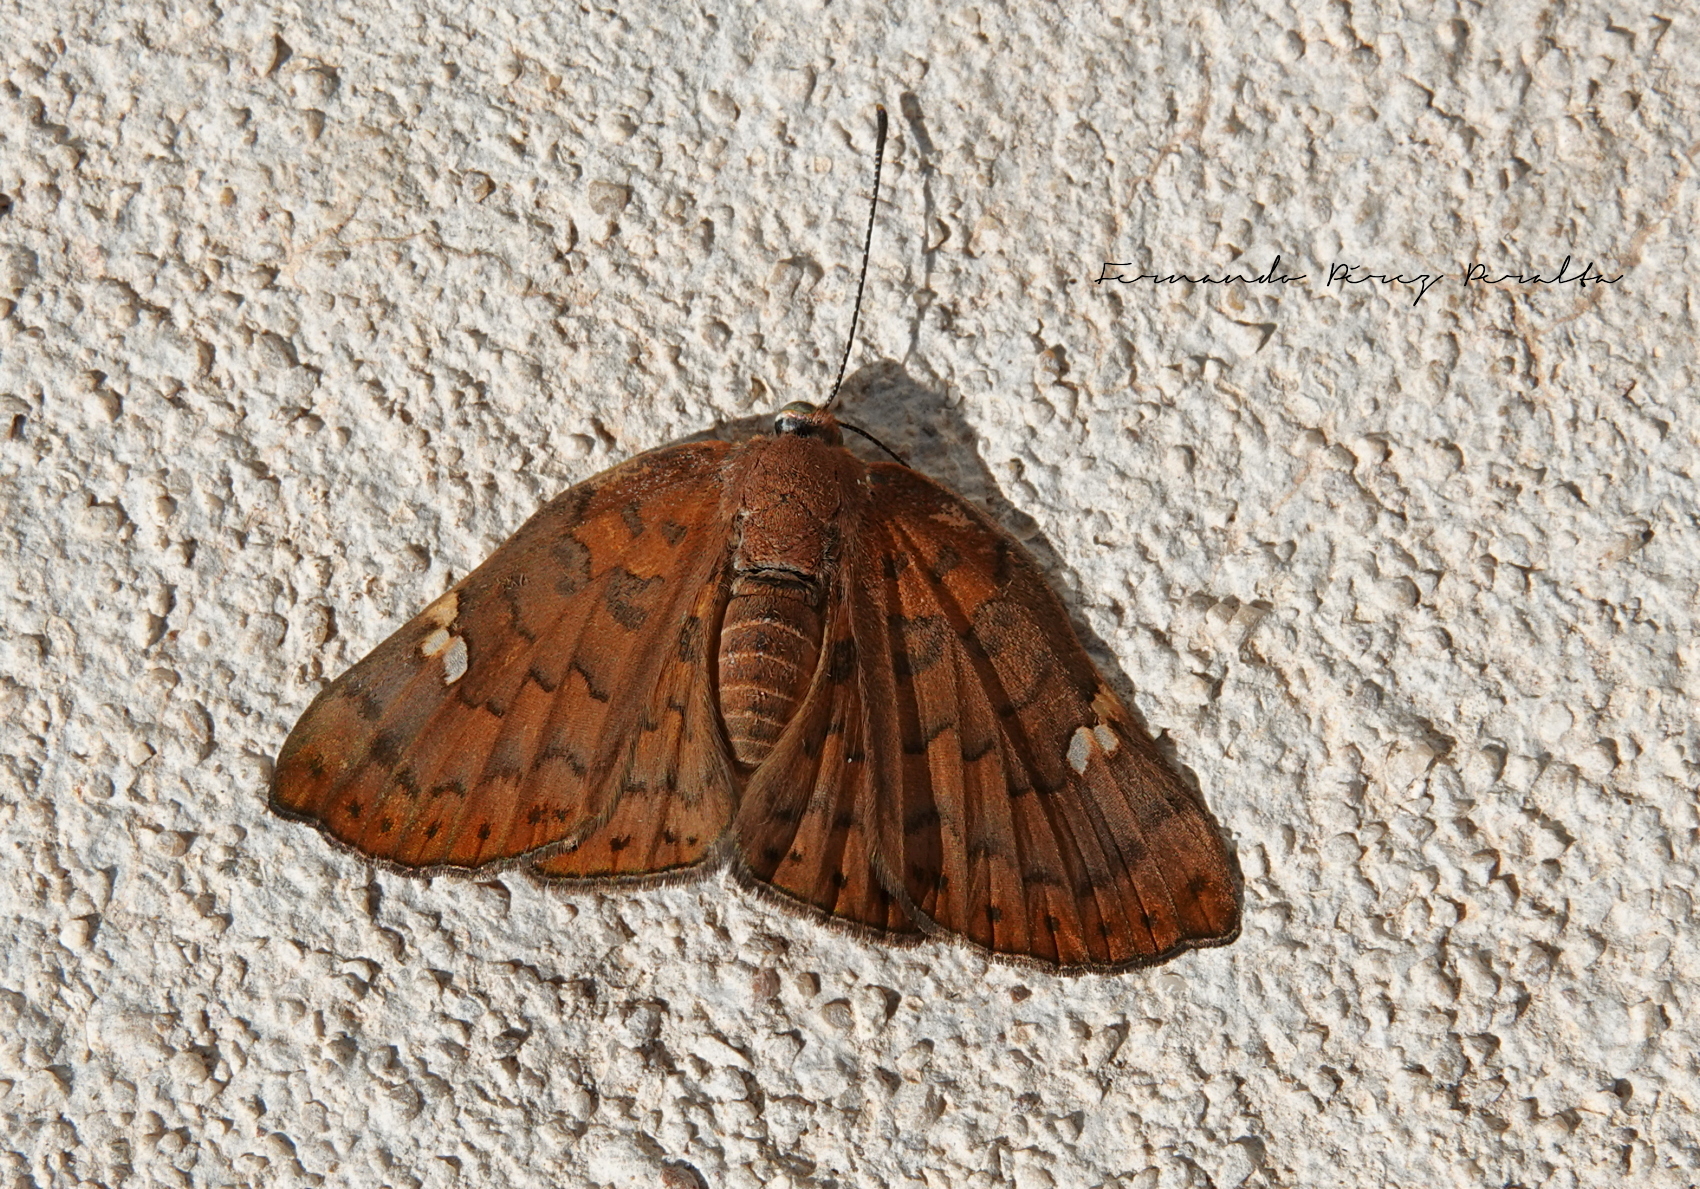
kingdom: Animalia
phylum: Arthropoda
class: Insecta
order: Lepidoptera
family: Riodinidae
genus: Curvie
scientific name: Curvie emesia
